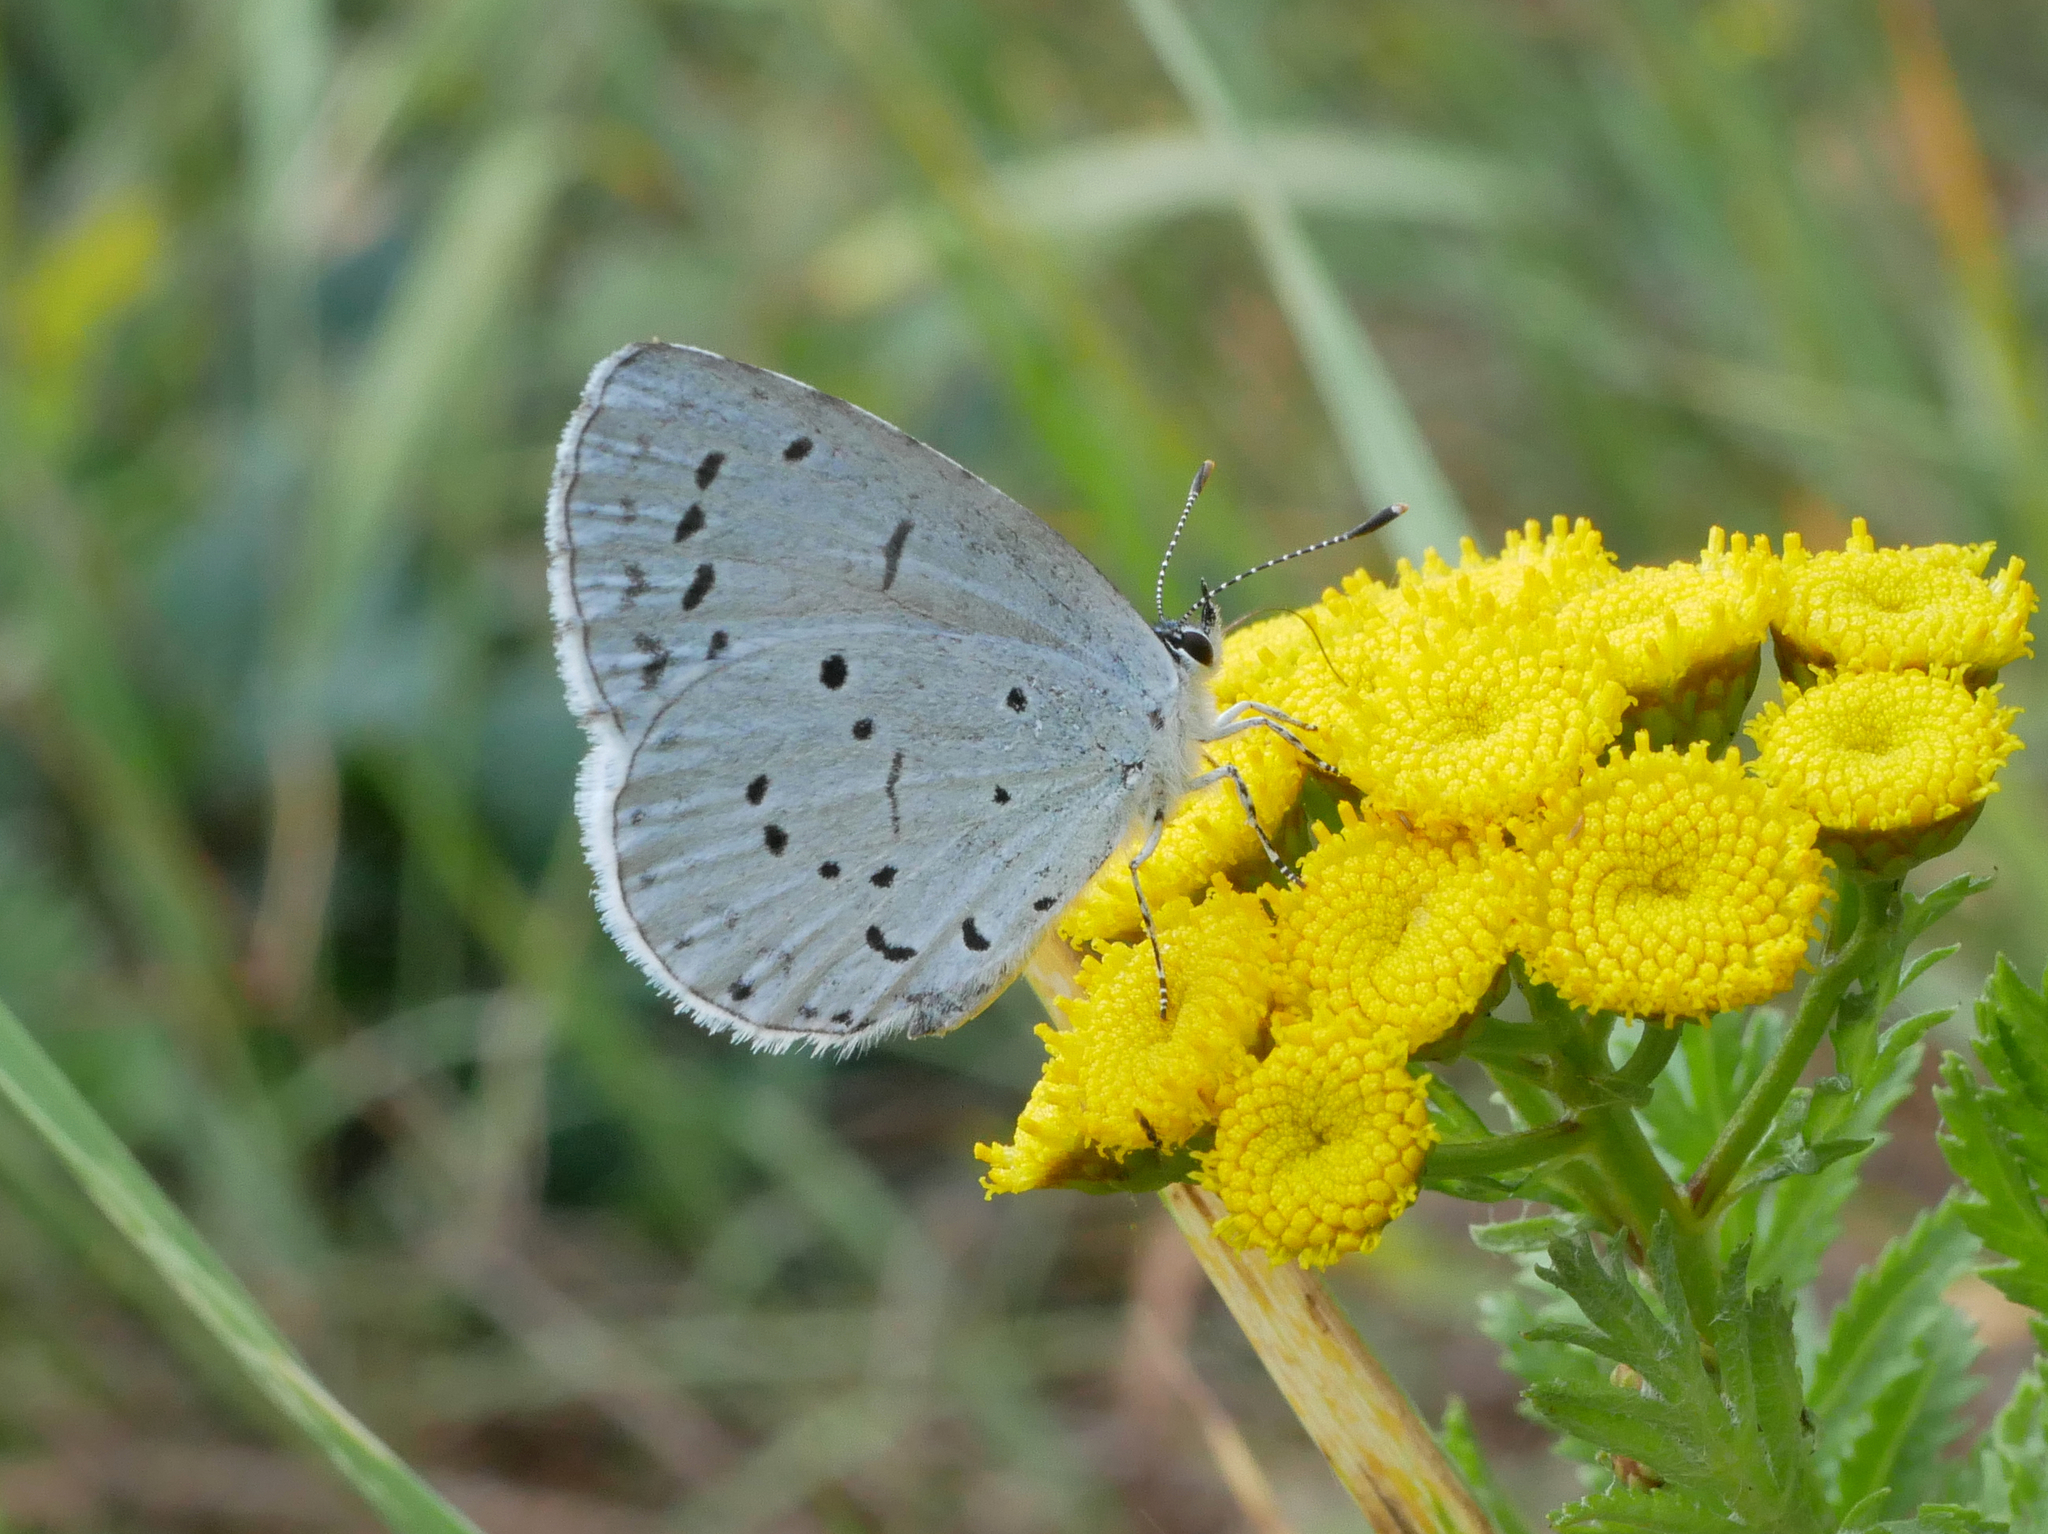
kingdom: Animalia
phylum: Arthropoda
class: Insecta
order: Lepidoptera
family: Lycaenidae
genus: Celastrina
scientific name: Celastrina argiolus
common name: Holly blue
